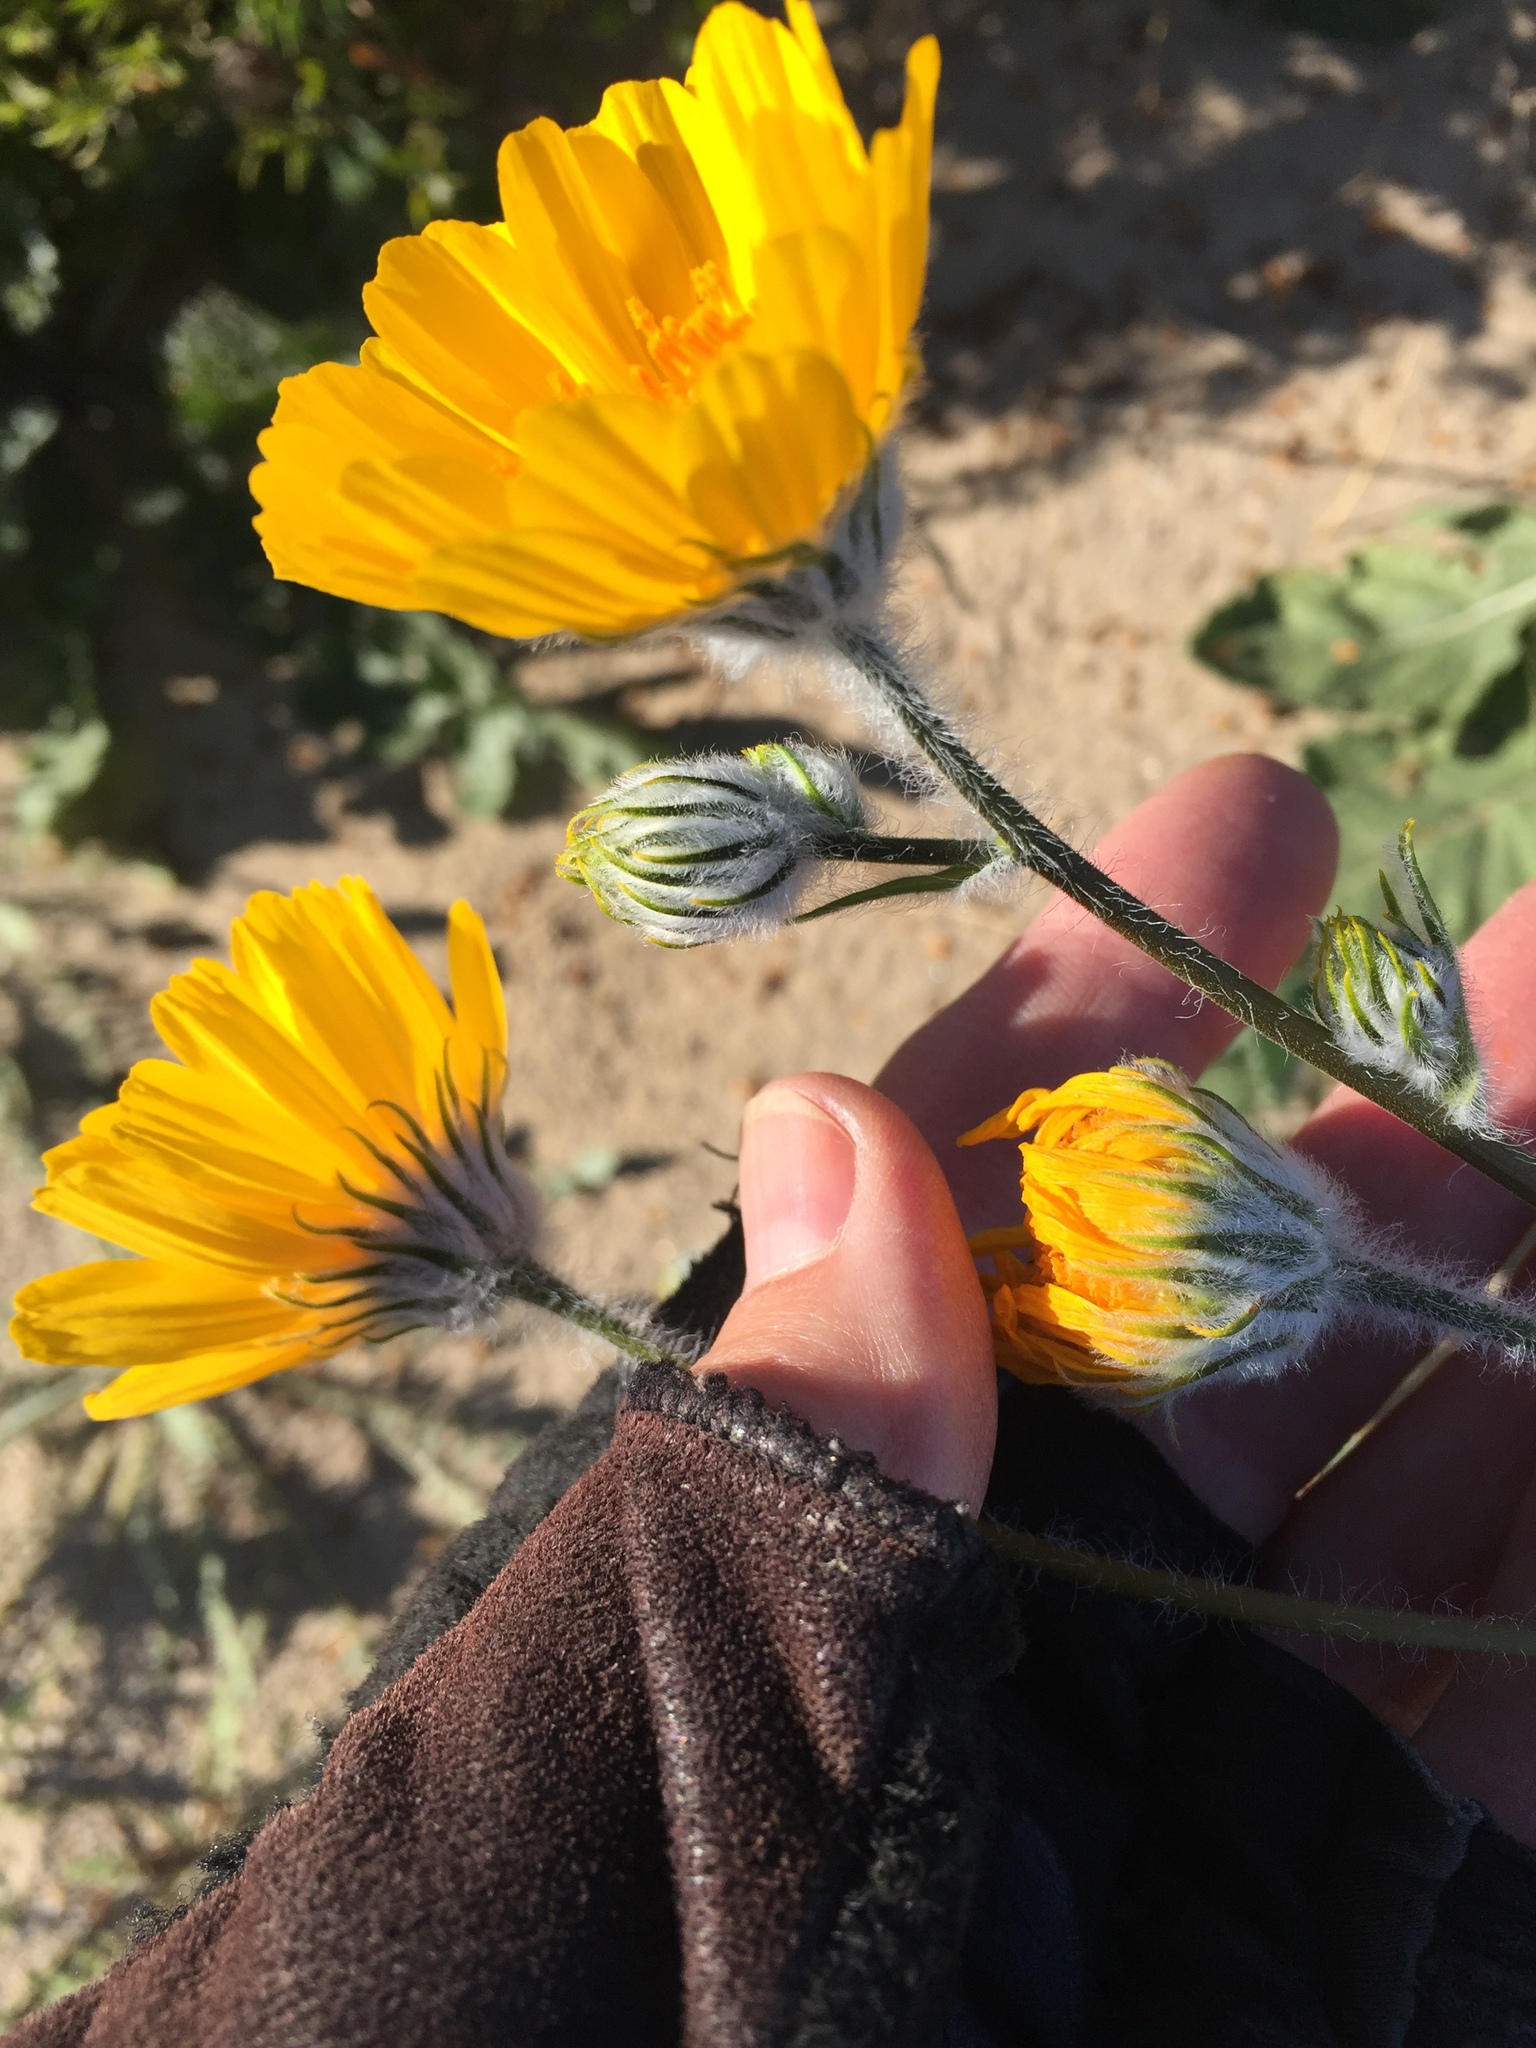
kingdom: Plantae
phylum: Tracheophyta
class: Magnoliopsida
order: Asterales
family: Asteraceae
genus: Geraea
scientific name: Geraea canescens
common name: Desert-gold
